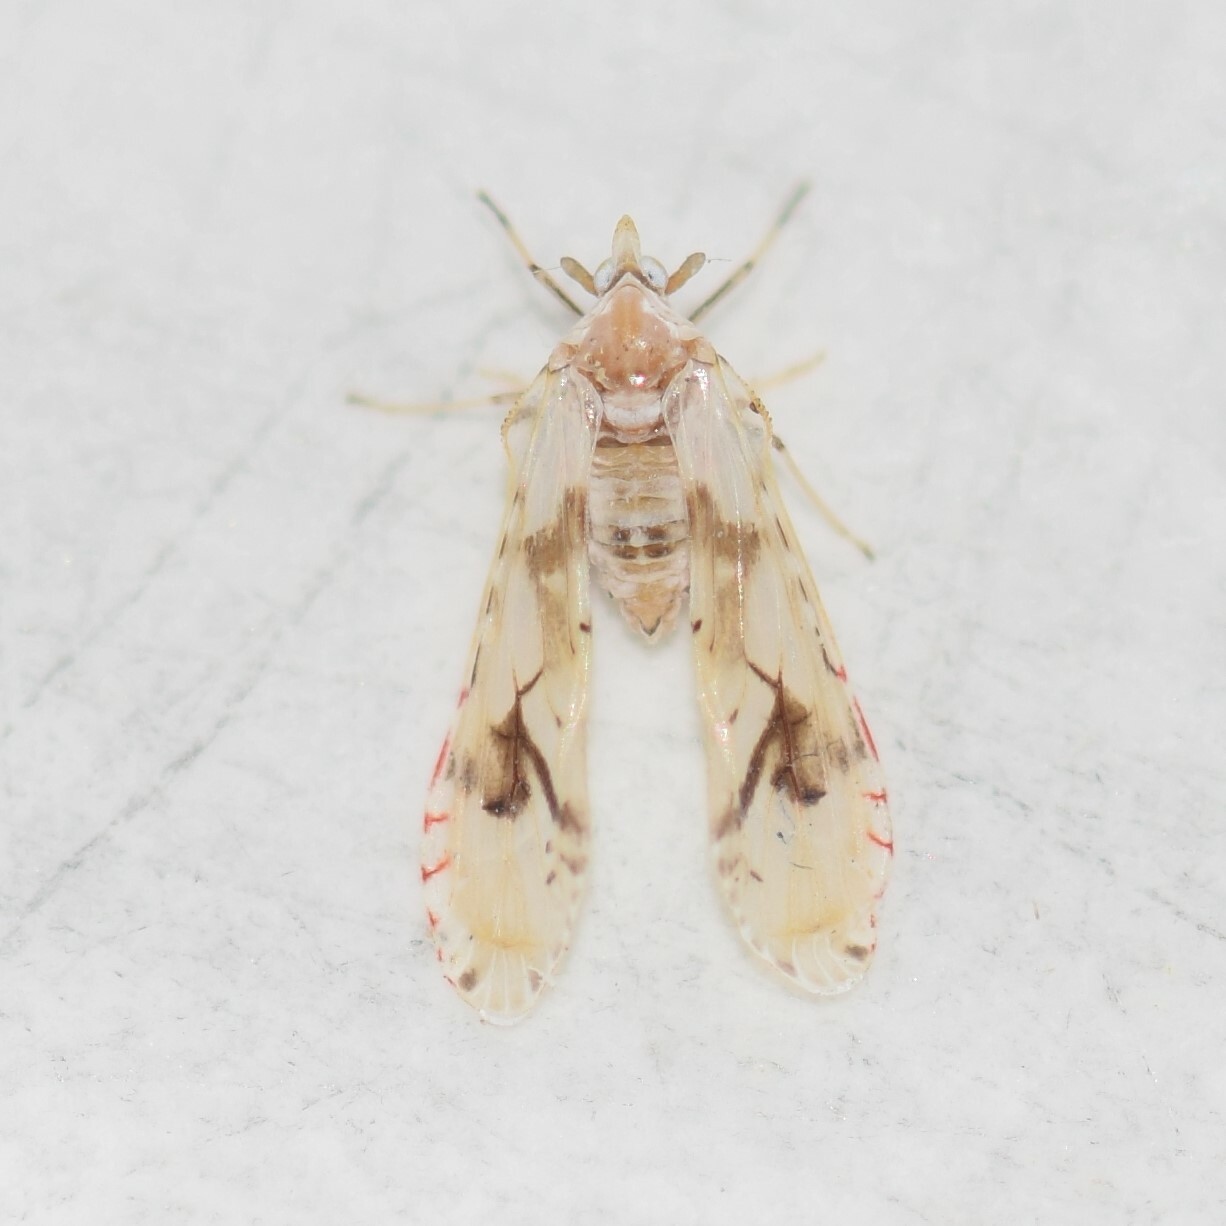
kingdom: Animalia
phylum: Arthropoda
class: Insecta
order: Hemiptera
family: Derbidae
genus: Anotia
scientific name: Anotia robertsonii
